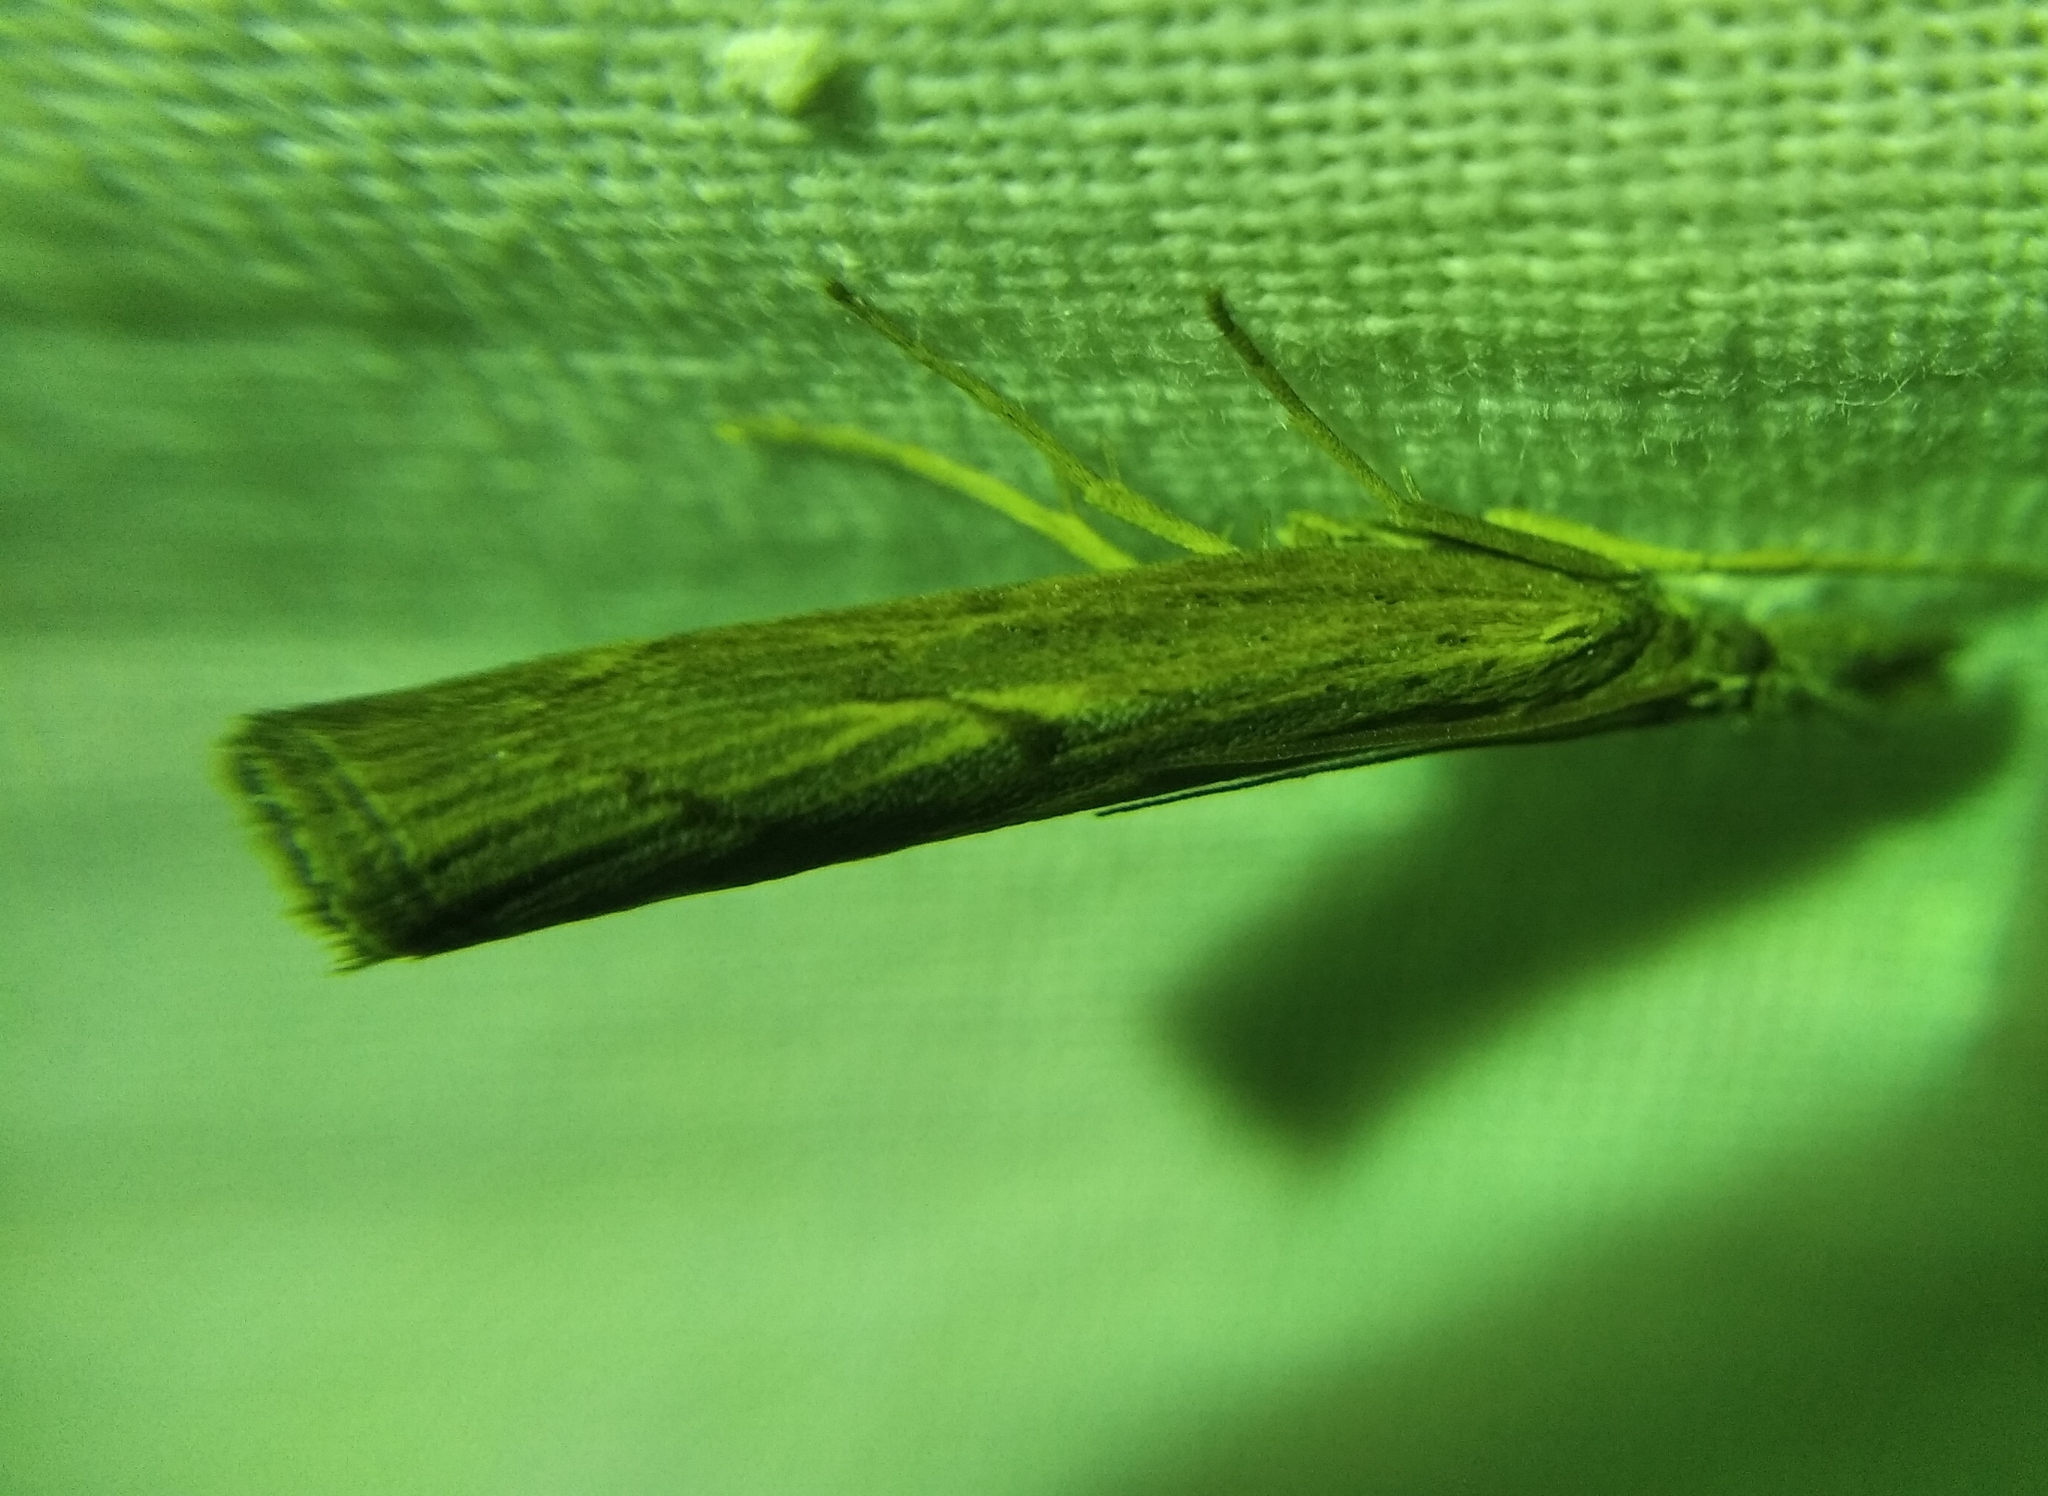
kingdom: Animalia
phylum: Arthropoda
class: Insecta
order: Lepidoptera
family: Crambidae
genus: Pediasia
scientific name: Pediasia contaminella
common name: Waste grass-veneer
